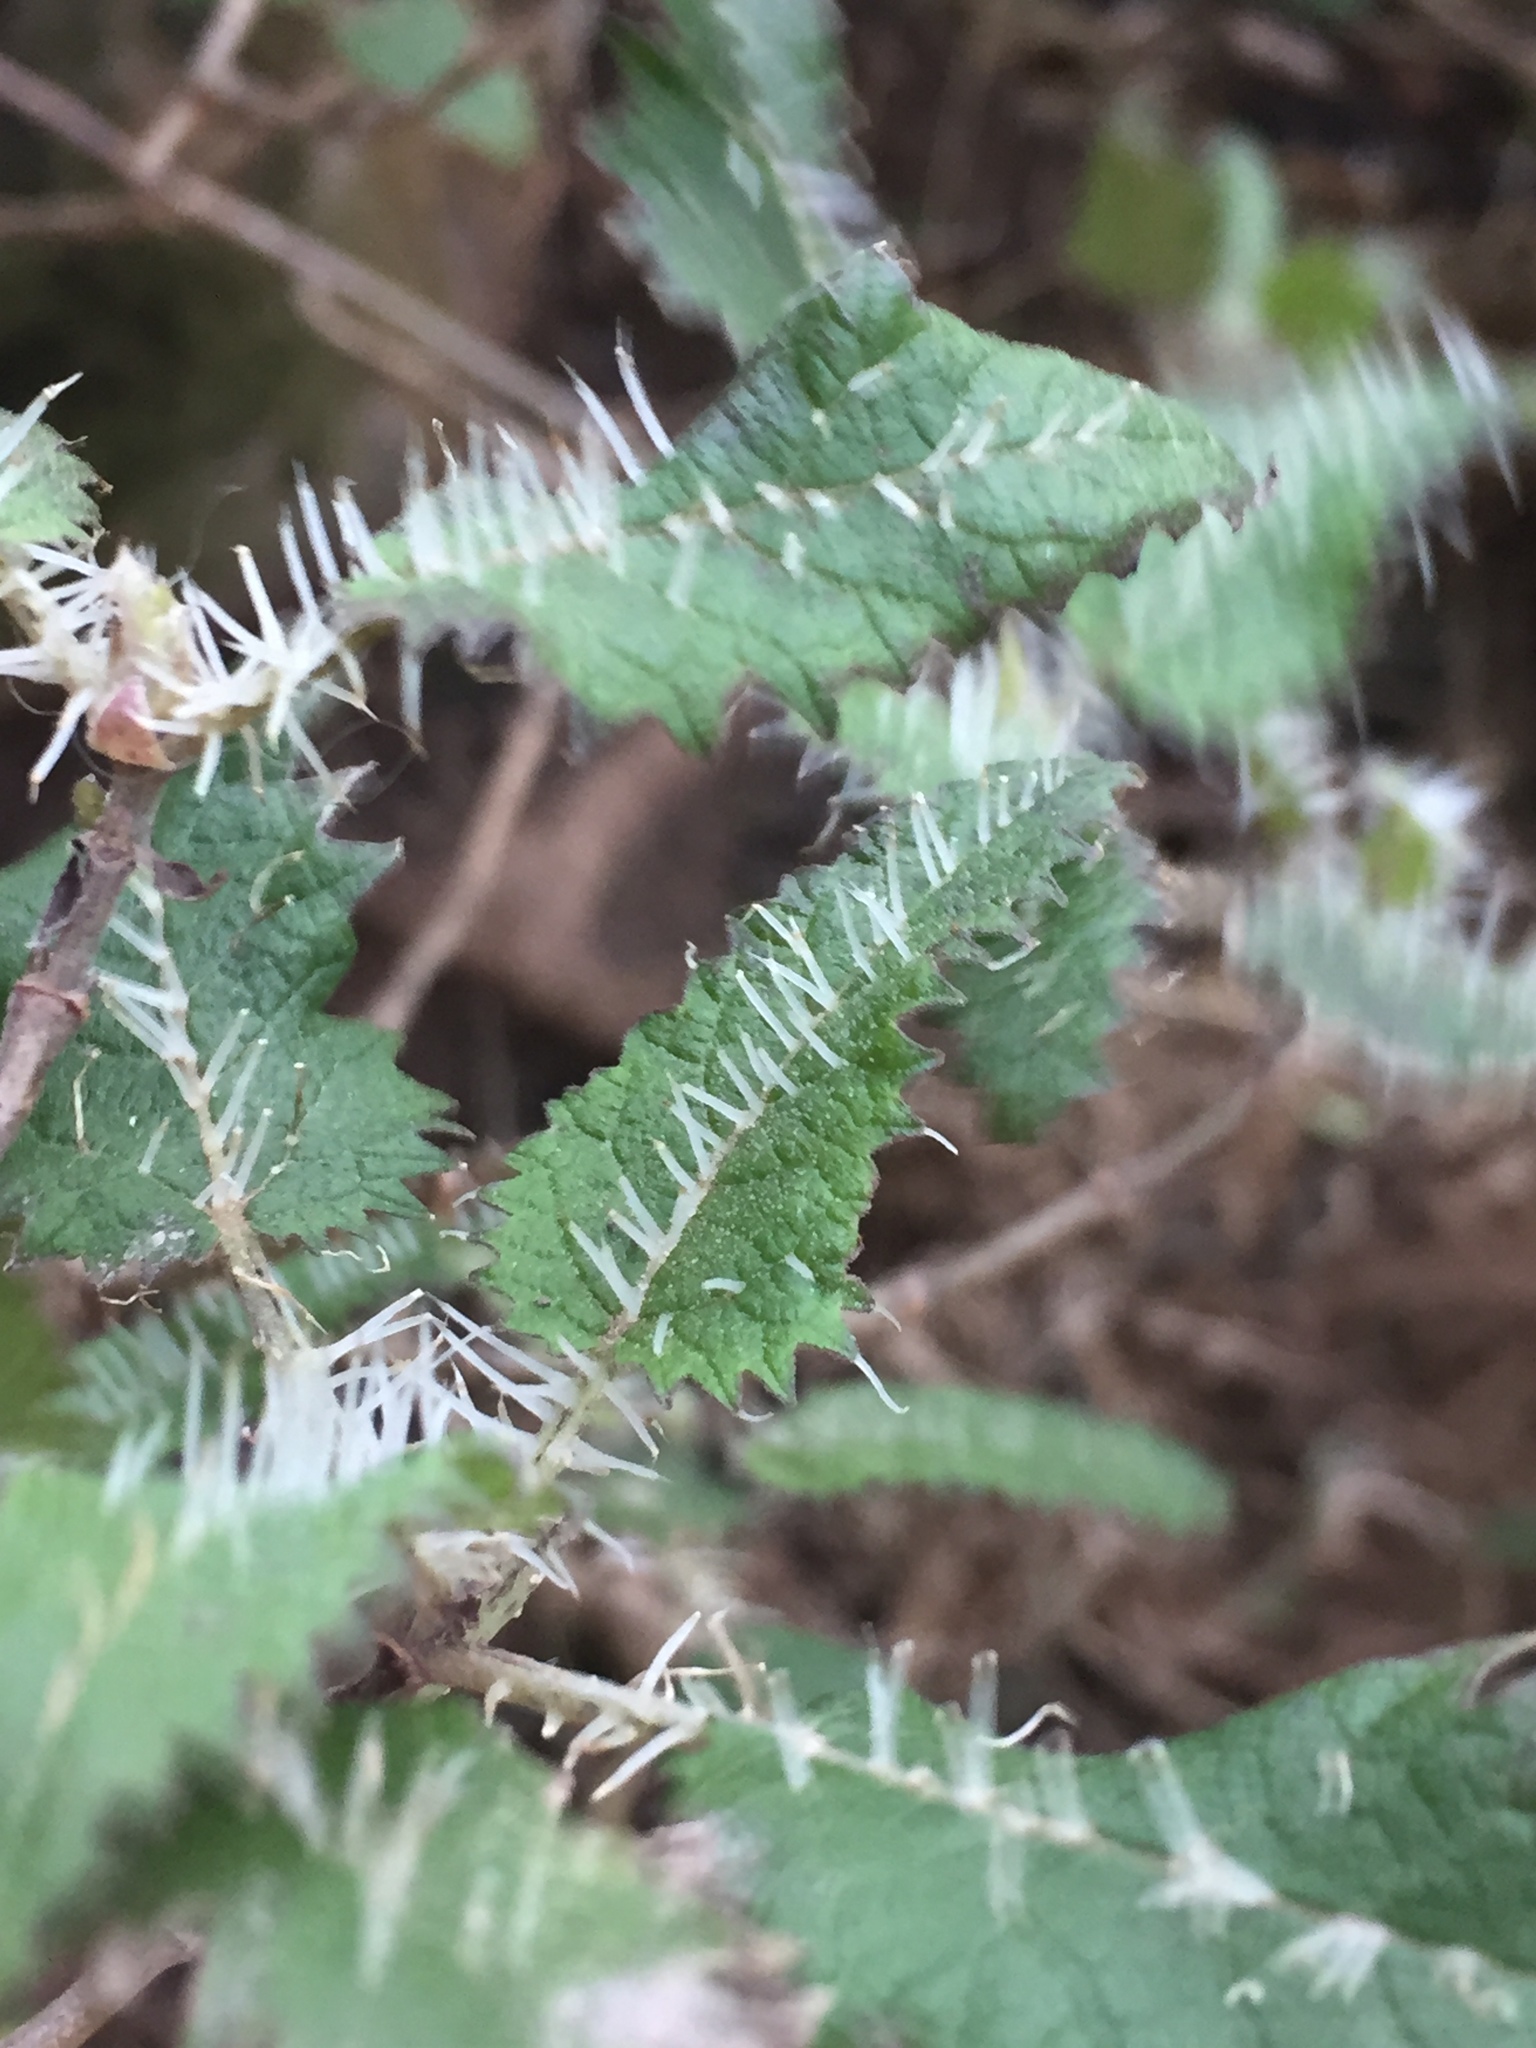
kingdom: Plantae
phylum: Tracheophyta
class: Magnoliopsida
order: Rosales
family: Urticaceae
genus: Urtica
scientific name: Urtica ferox
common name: Tree nettle
